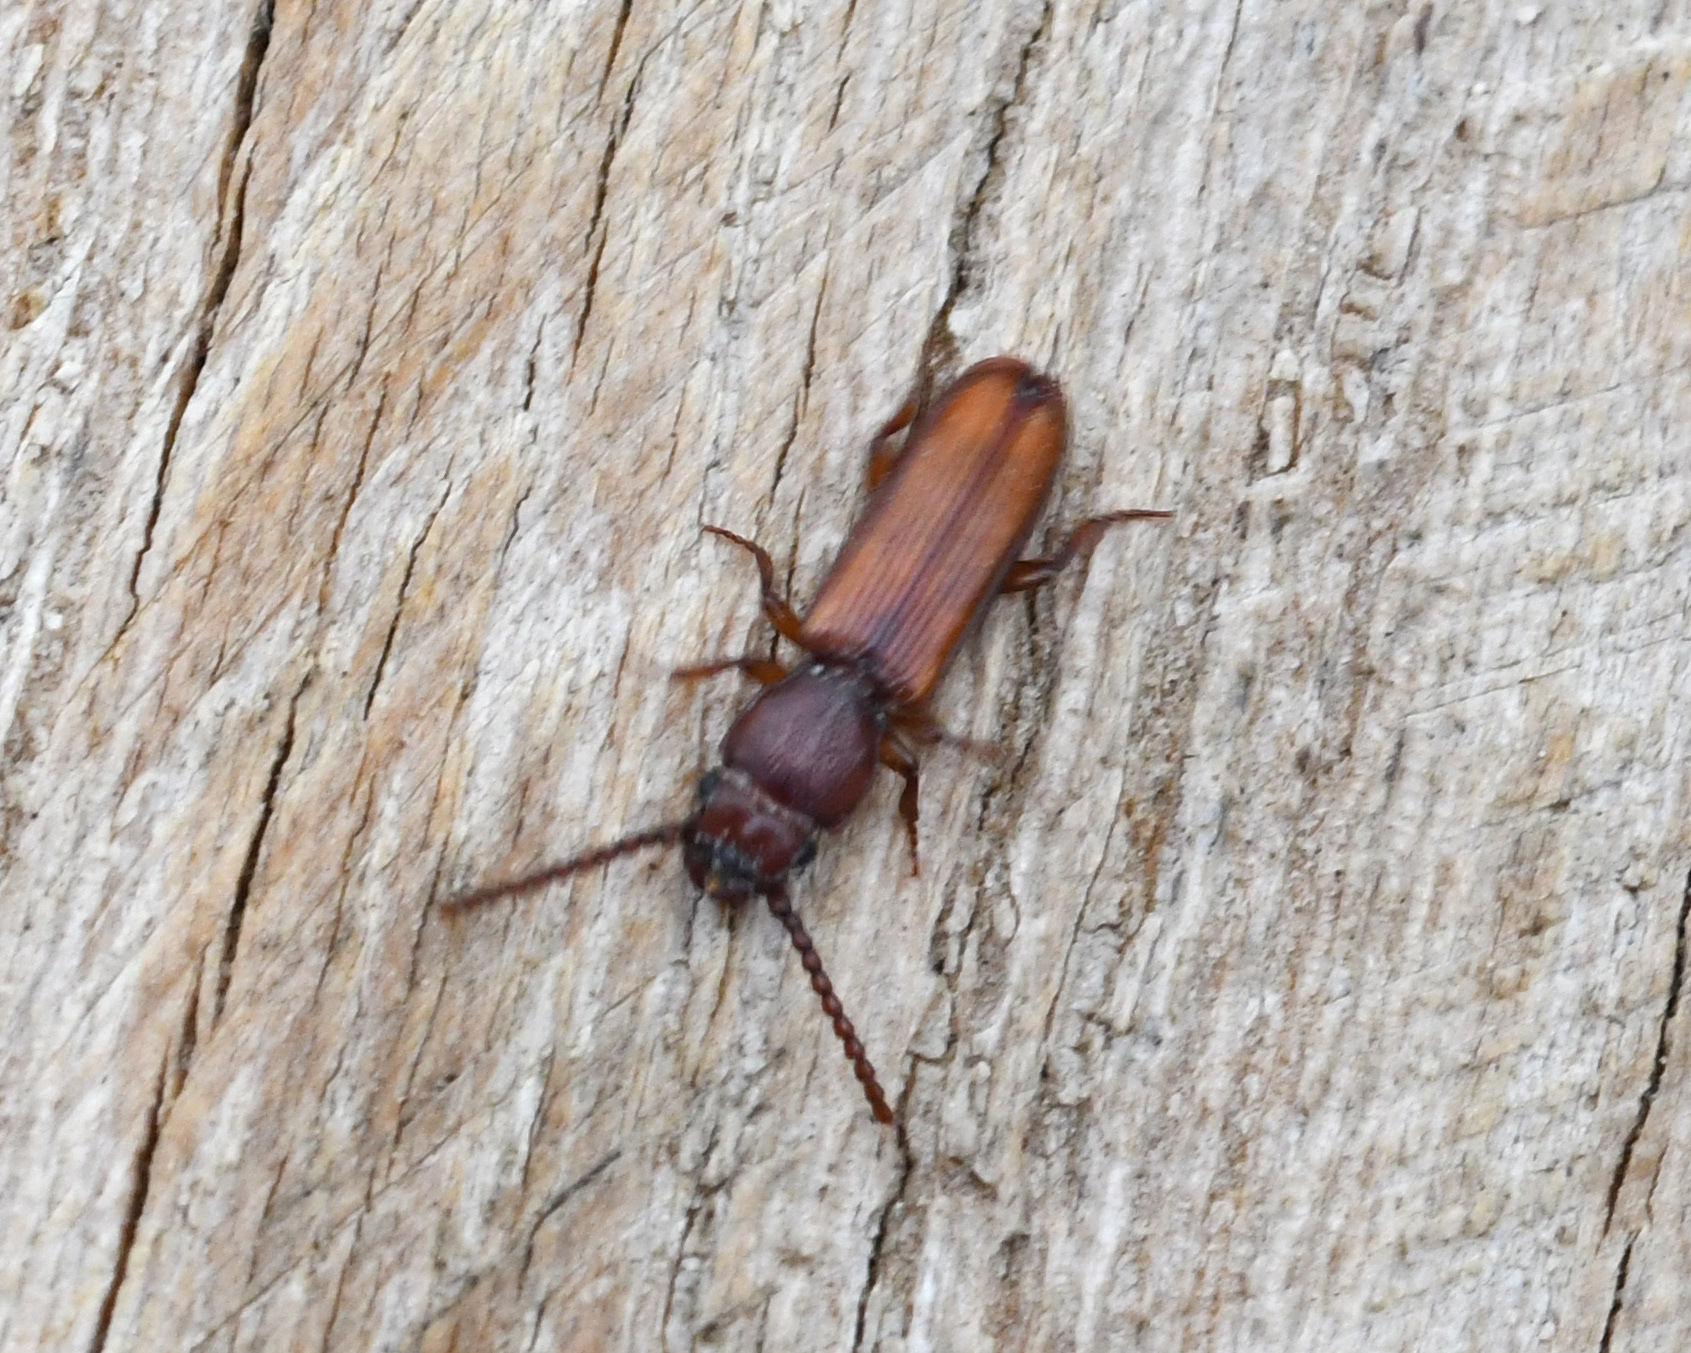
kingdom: Animalia
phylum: Arthropoda
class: Insecta
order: Coleoptera
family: Passandridae
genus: Catogenus
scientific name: Catogenus
